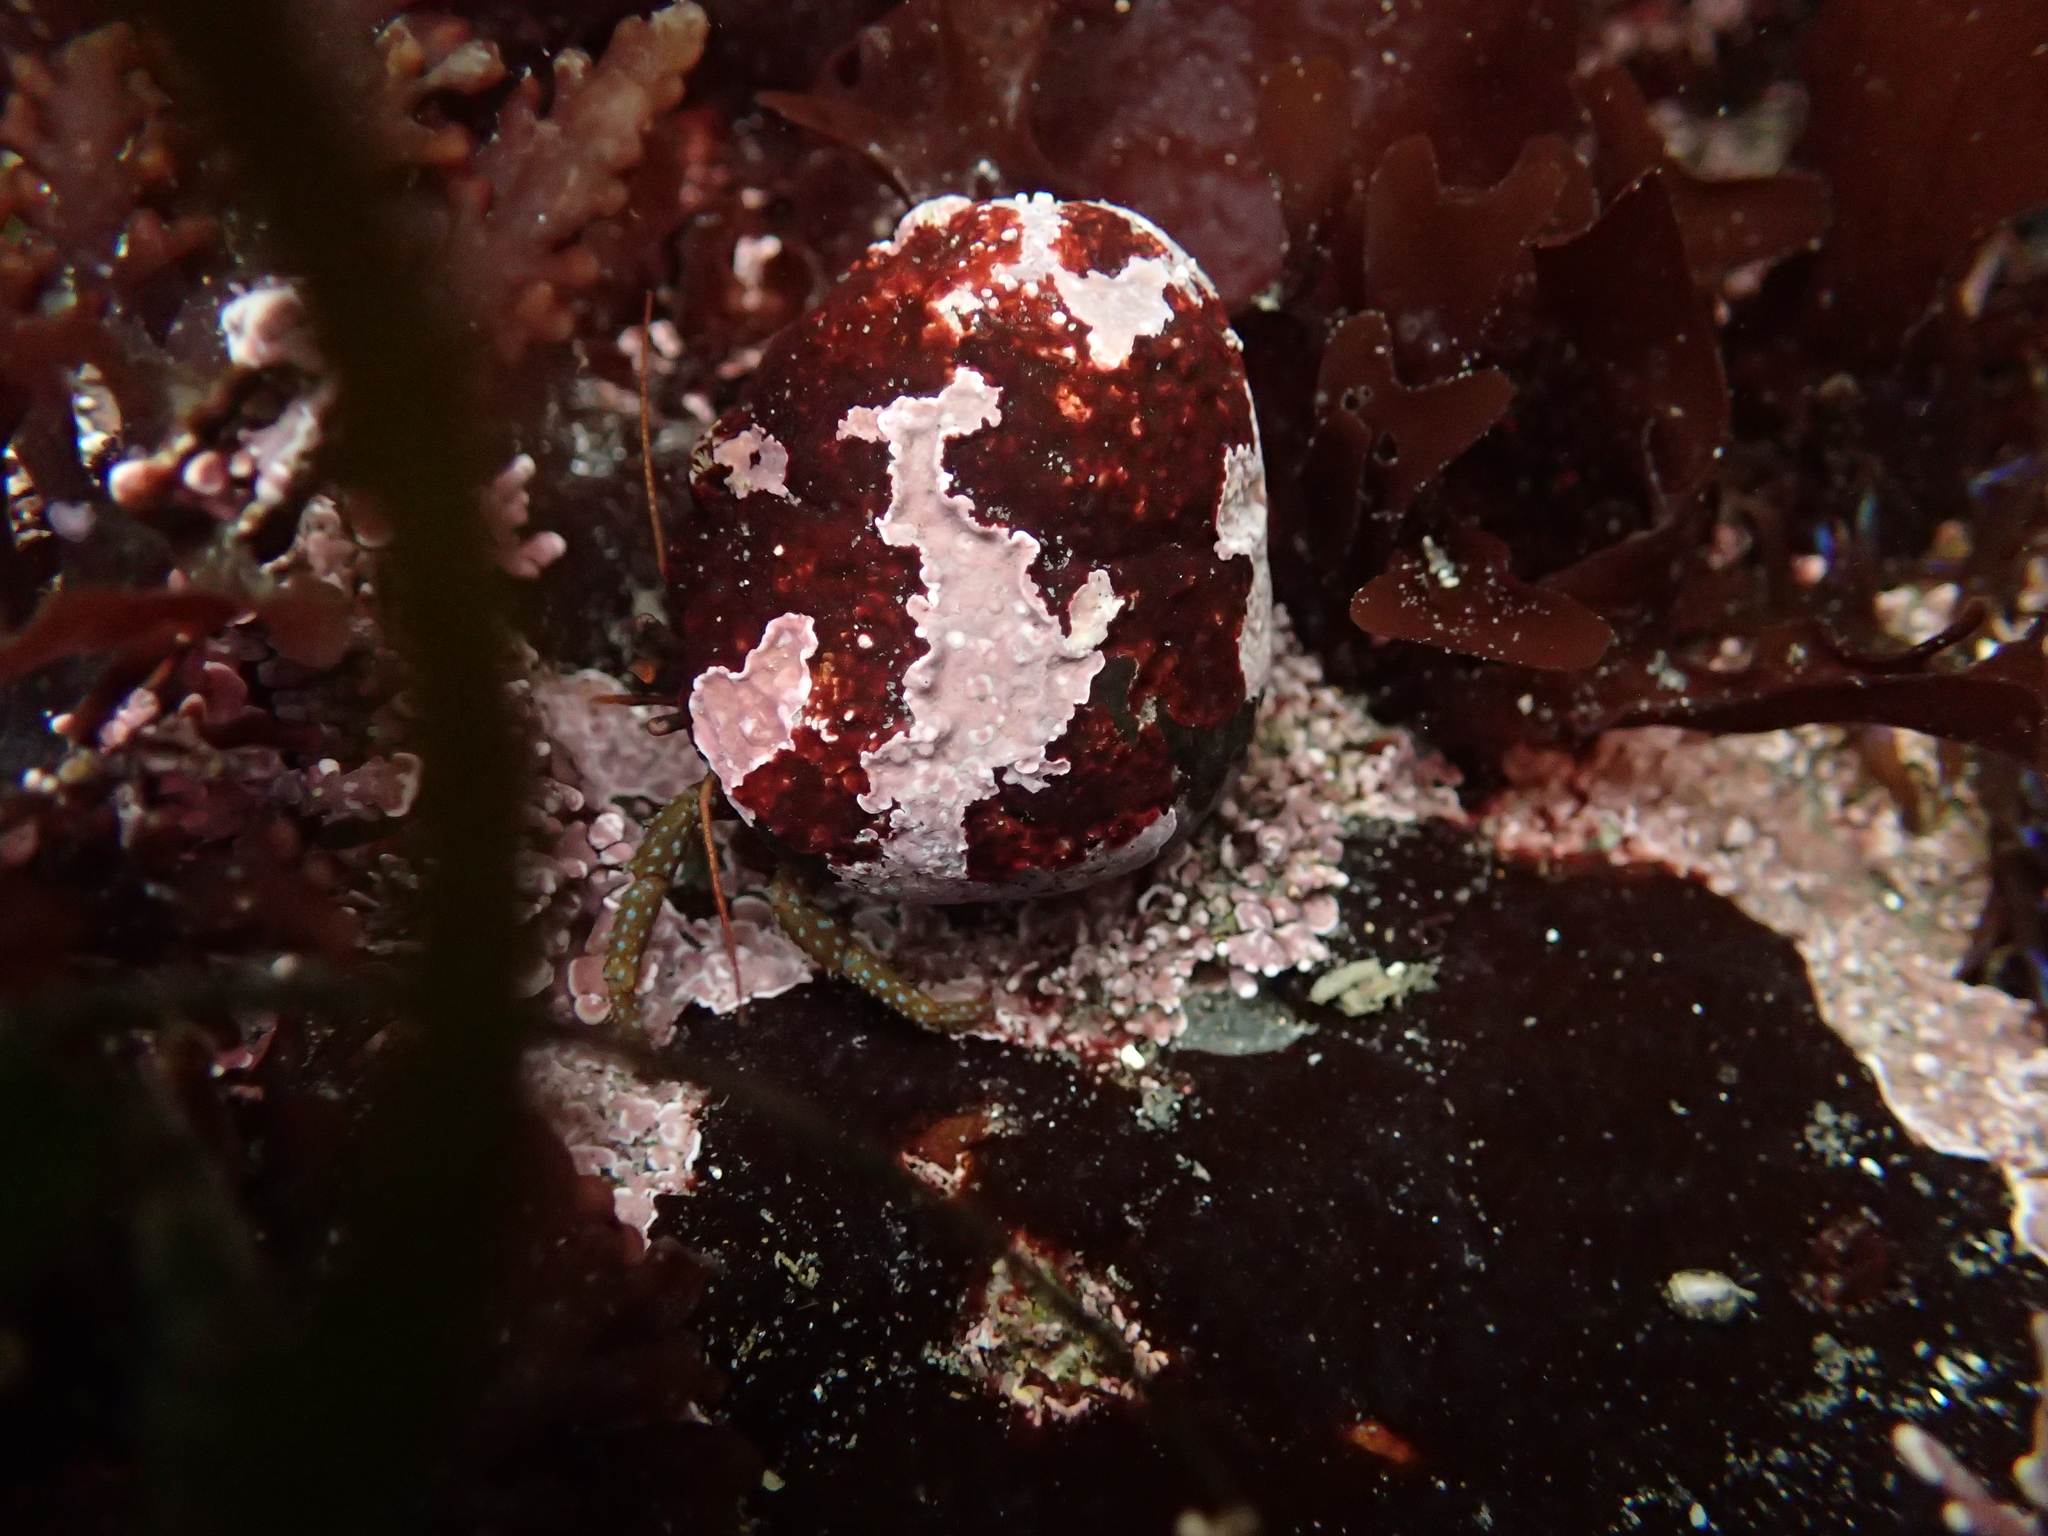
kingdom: Animalia
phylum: Arthropoda
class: Malacostraca
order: Decapoda
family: Paguridae
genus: Pagurus
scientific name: Pagurus granosimanus
